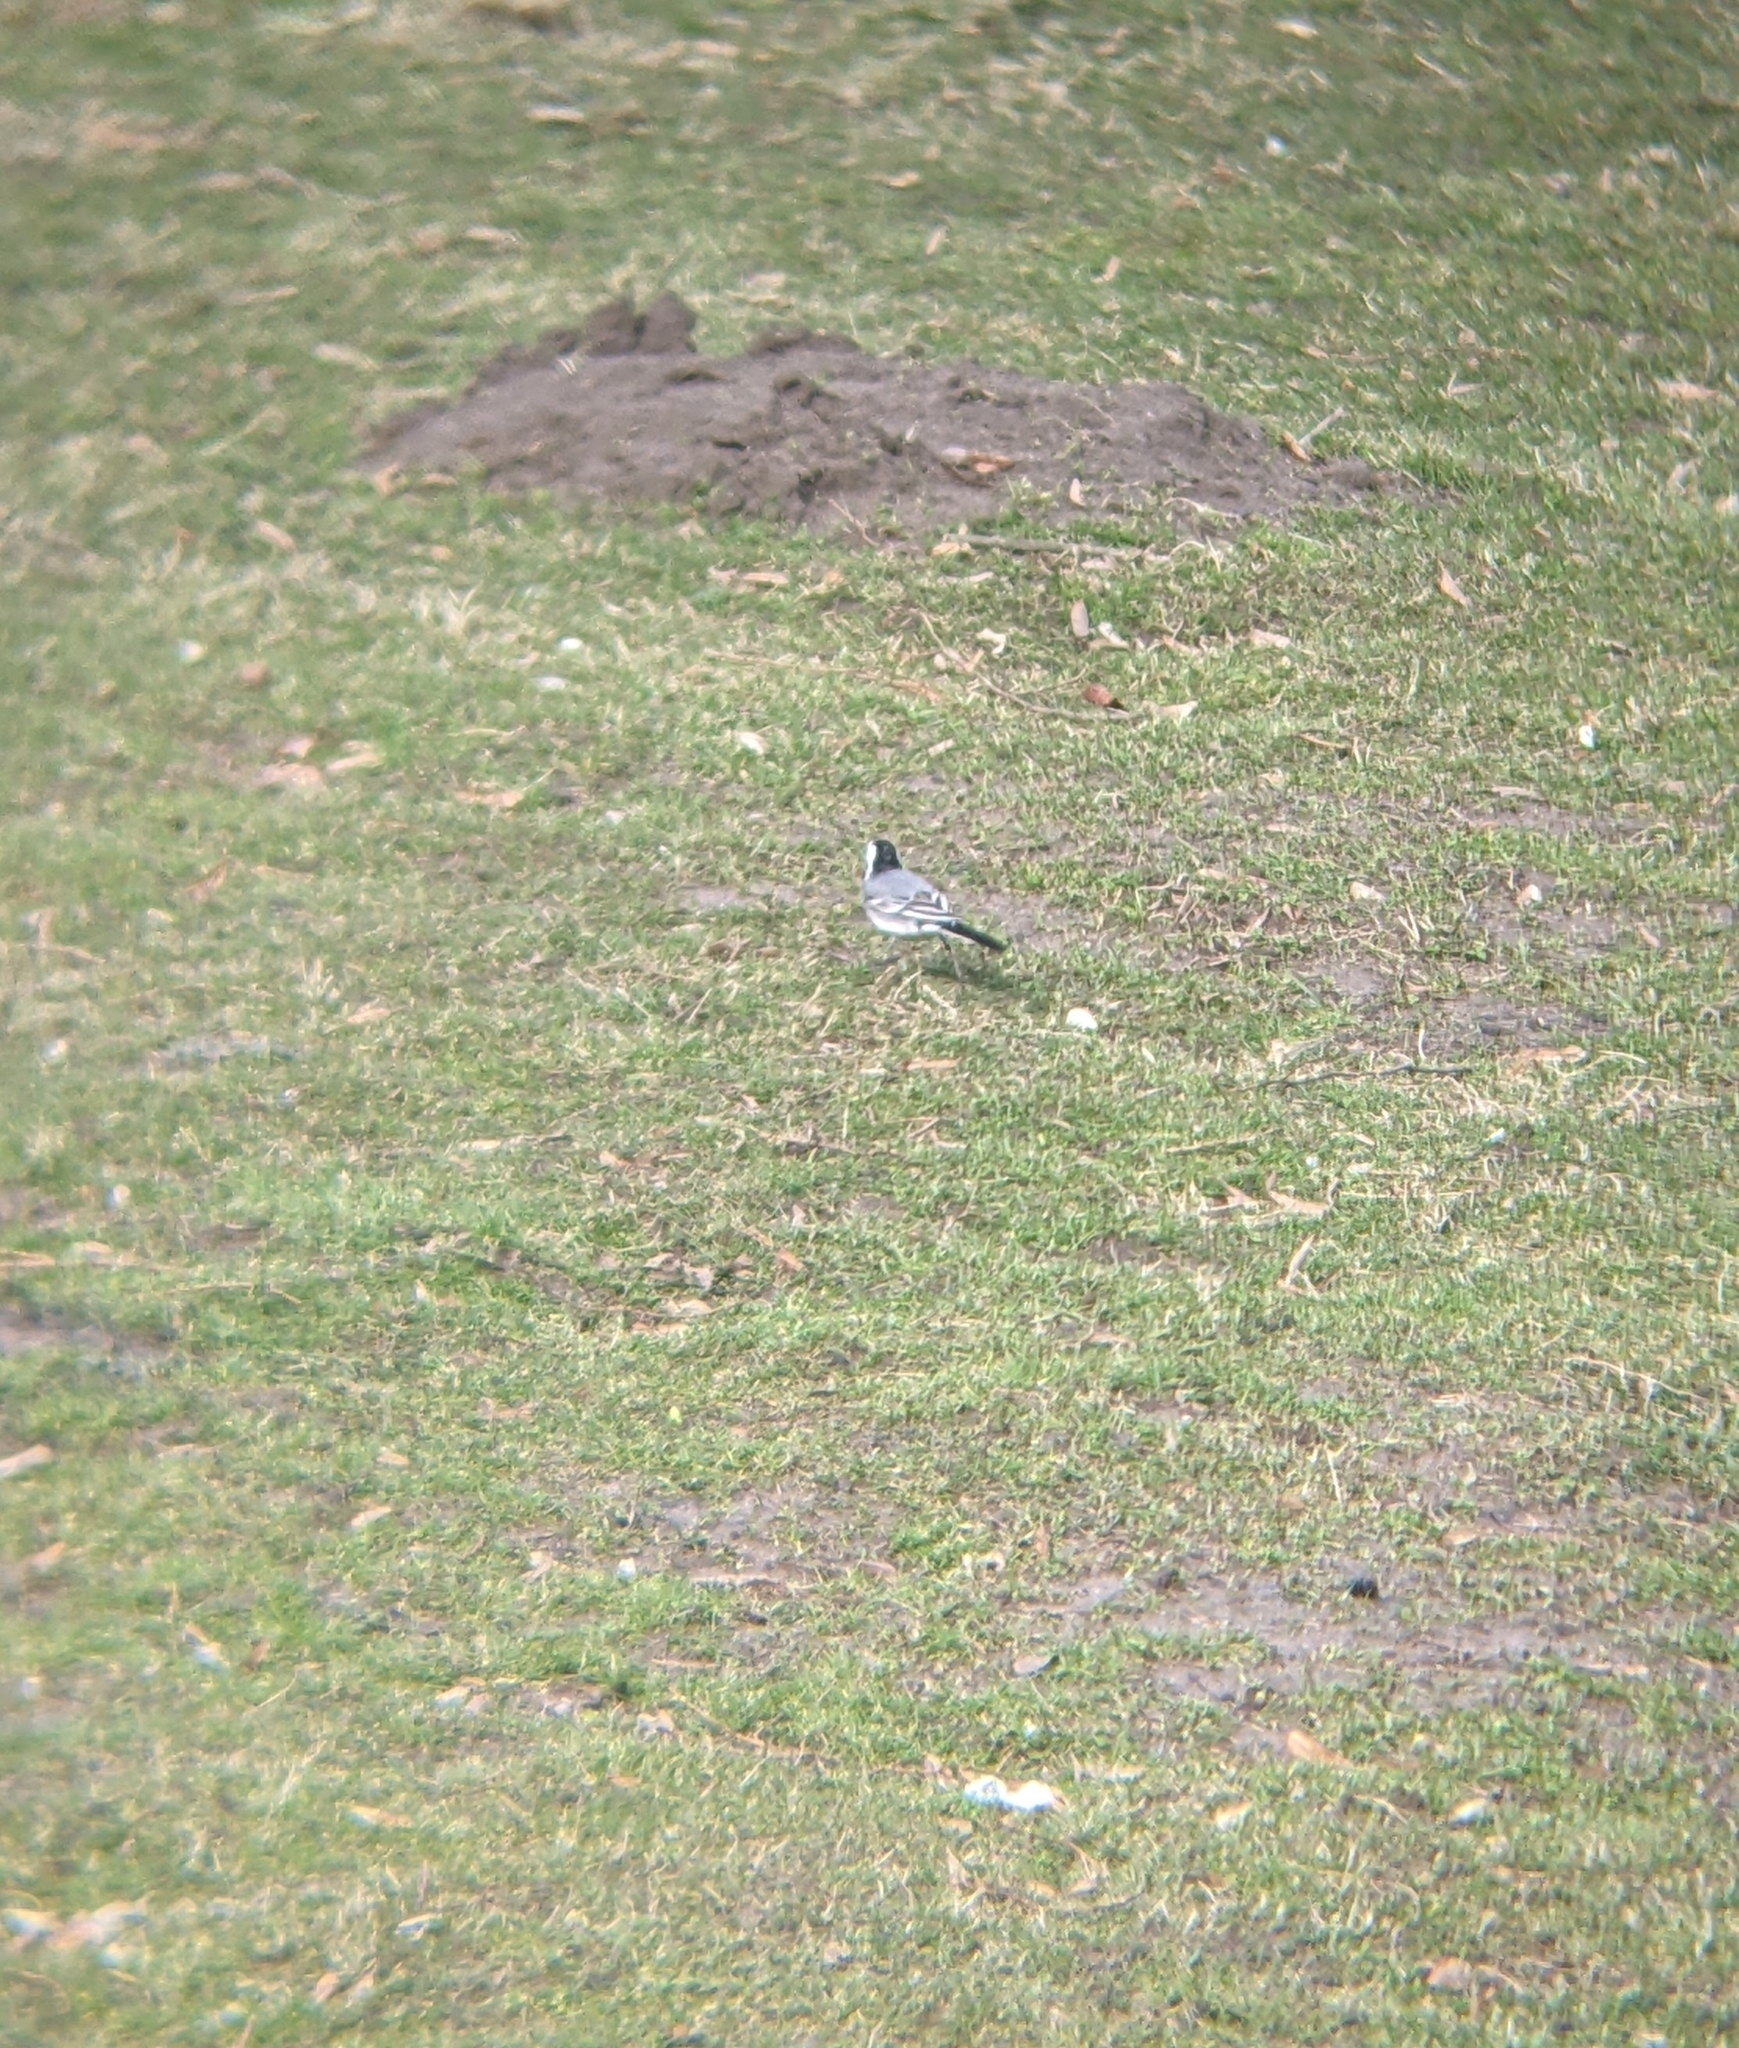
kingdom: Animalia
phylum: Chordata
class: Aves
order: Passeriformes
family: Motacillidae
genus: Motacilla
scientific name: Motacilla alba
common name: White wagtail
